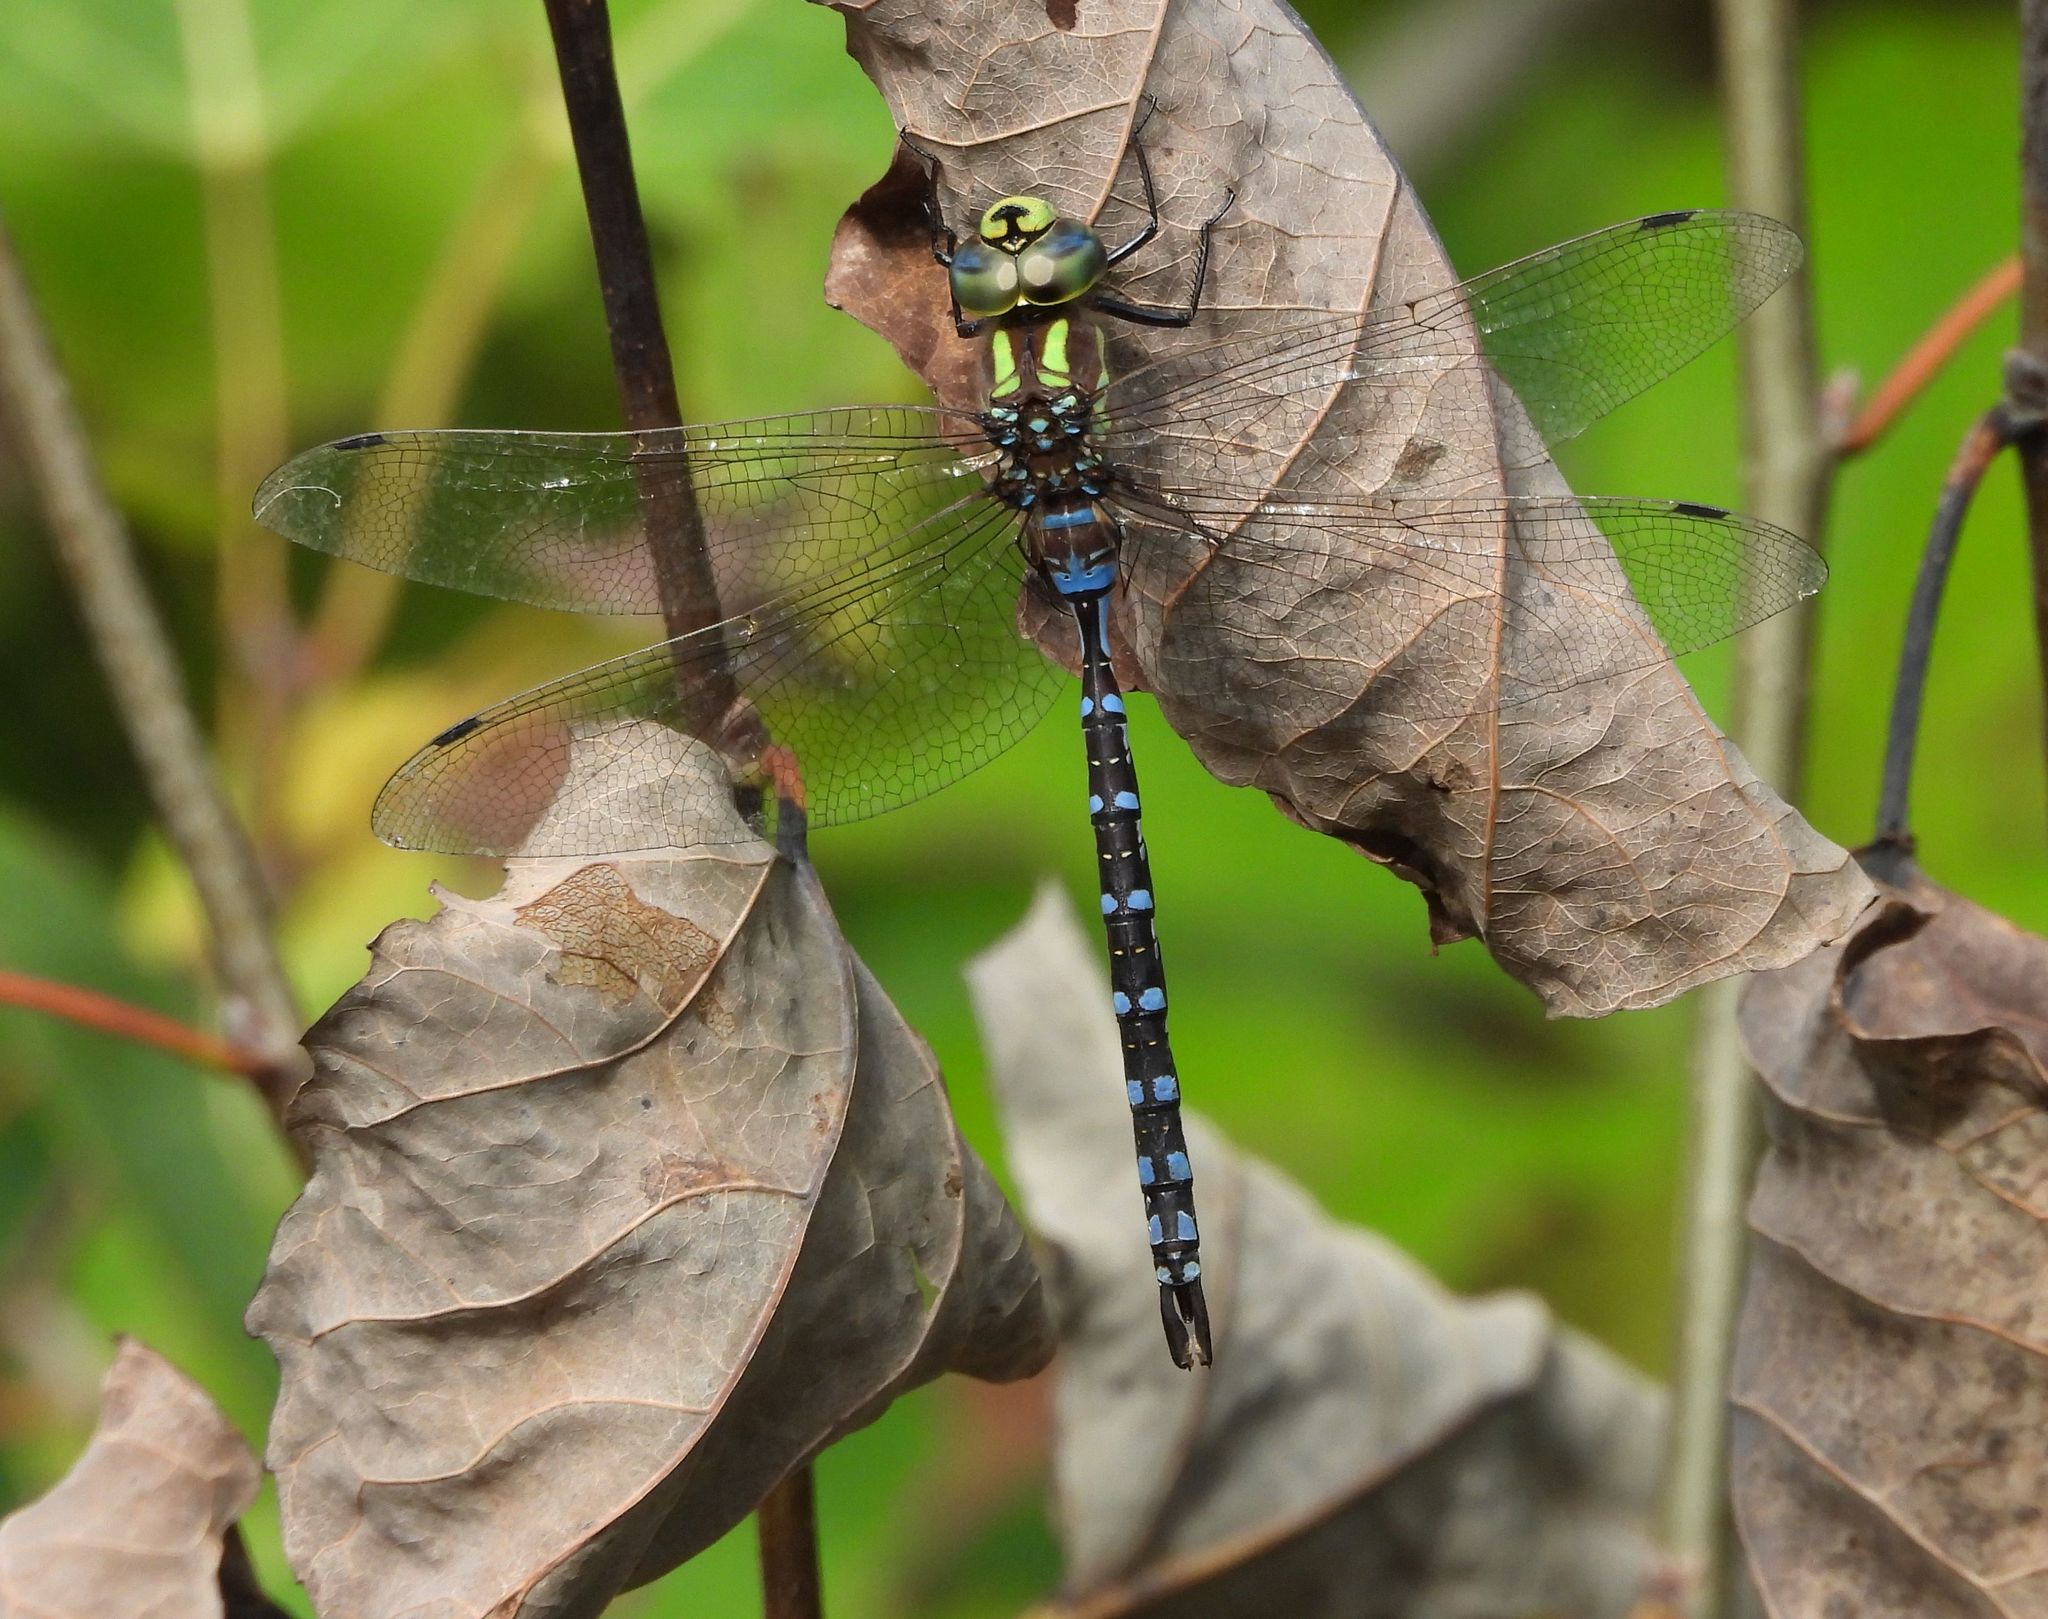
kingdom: Animalia
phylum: Arthropoda
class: Insecta
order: Odonata
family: Aeshnidae
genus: Aeshna
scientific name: Aeshna constricta
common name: Lance-tipped darner
